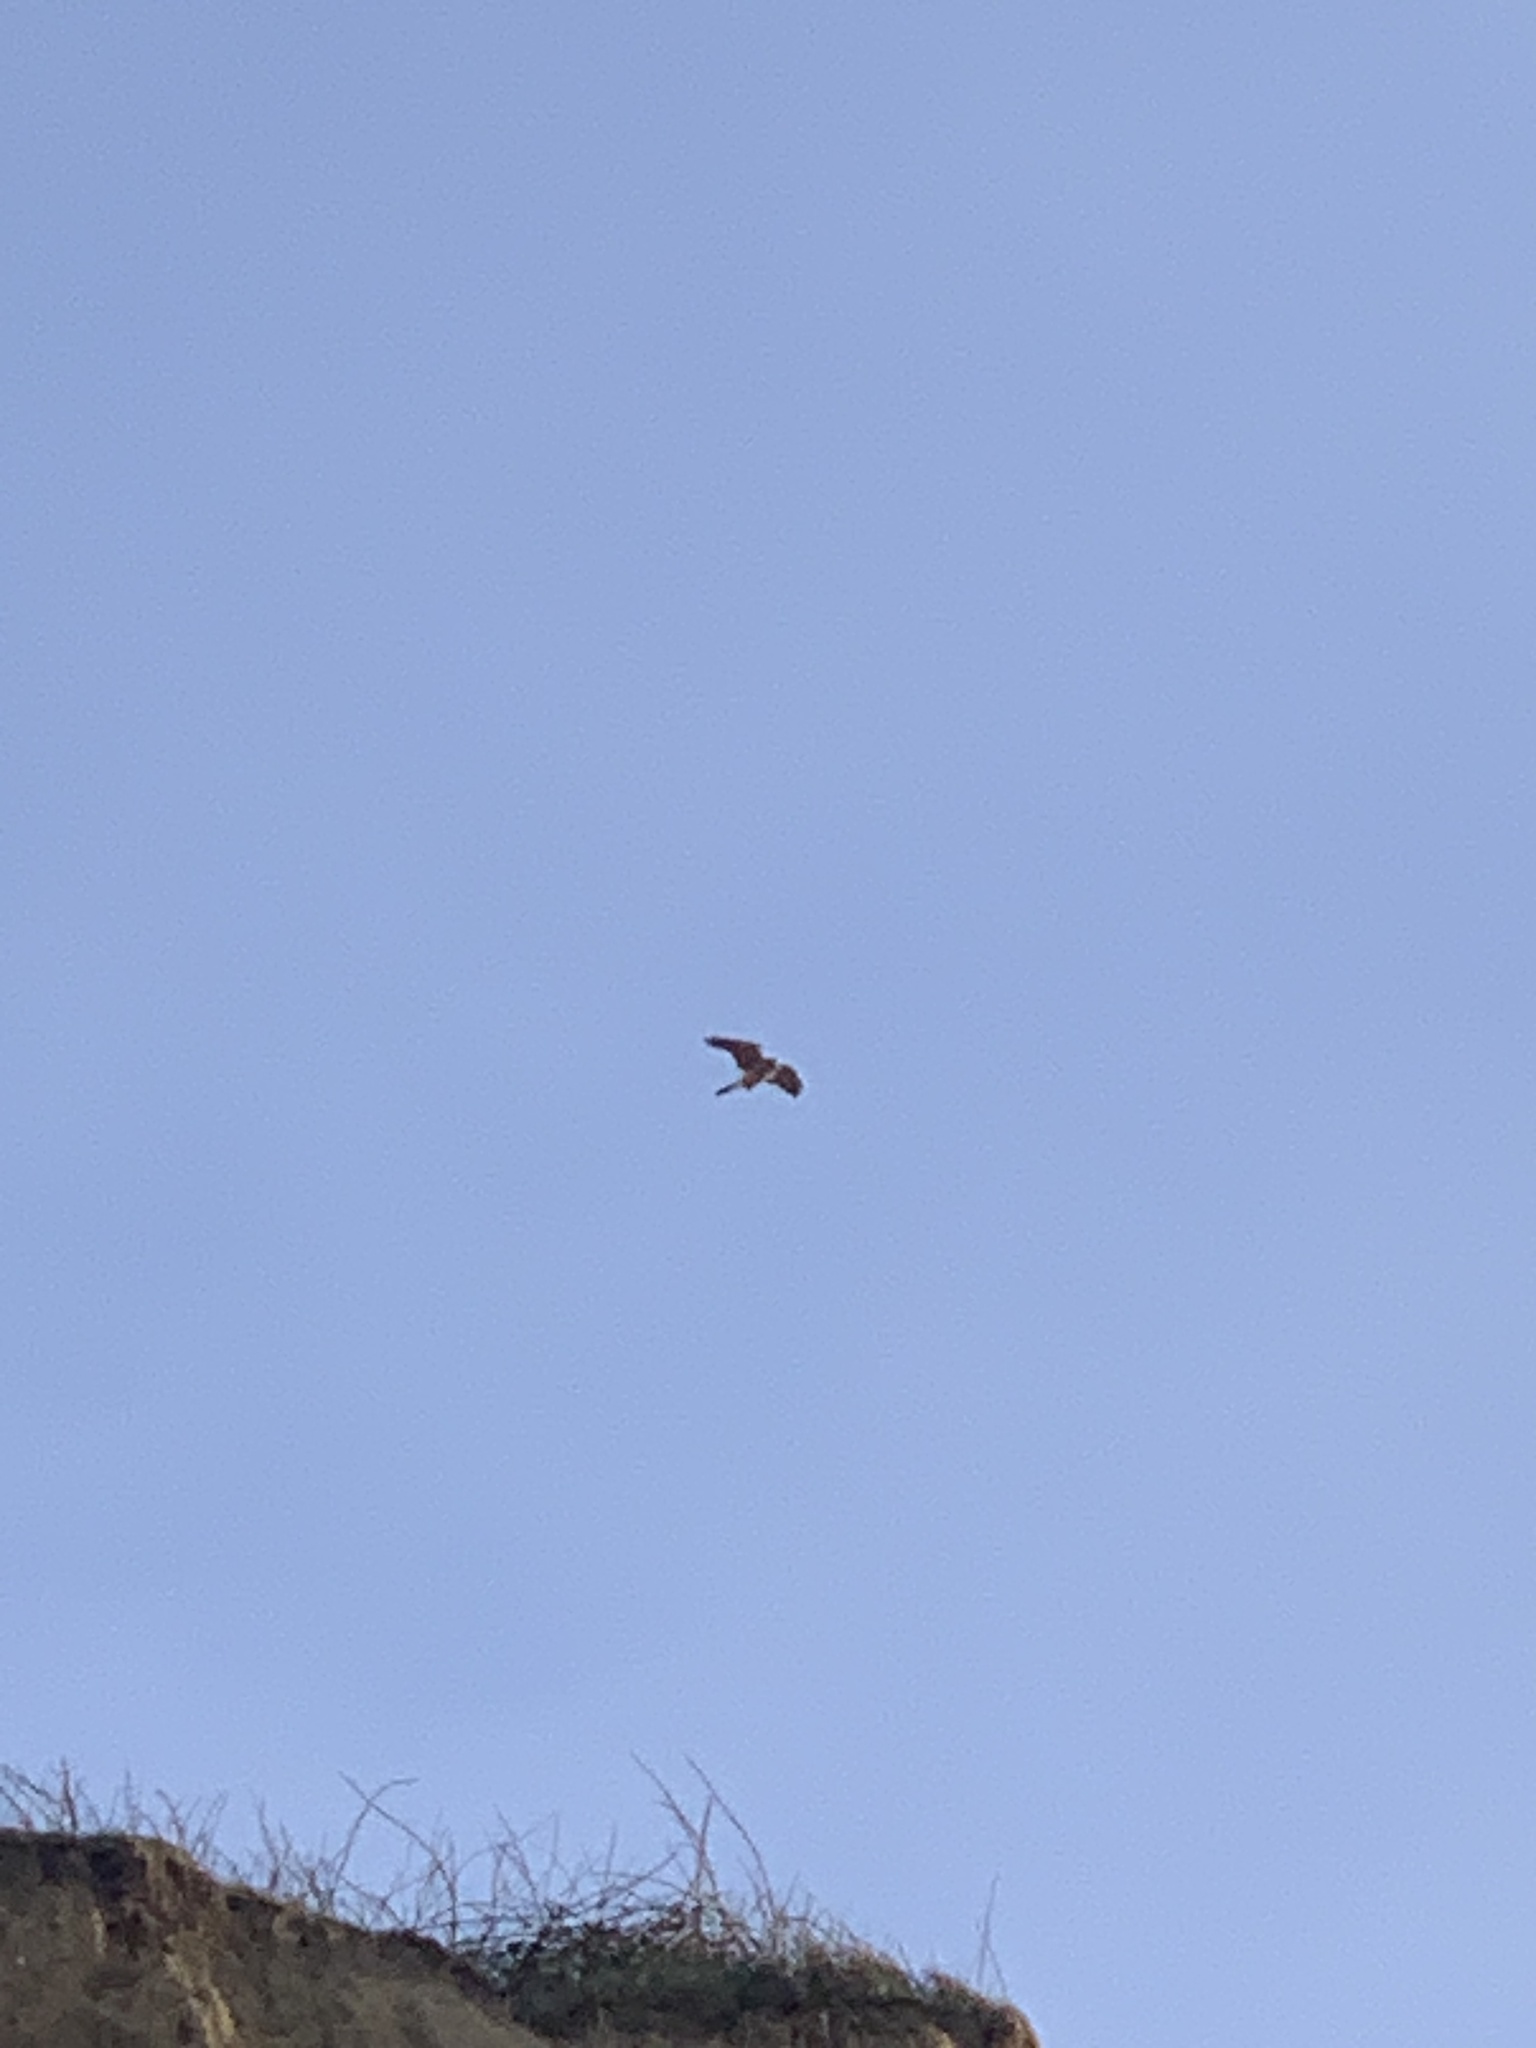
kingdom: Animalia
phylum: Chordata
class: Aves
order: Falconiformes
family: Falconidae
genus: Falco
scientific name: Falco tinnunculus
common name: Common kestrel
